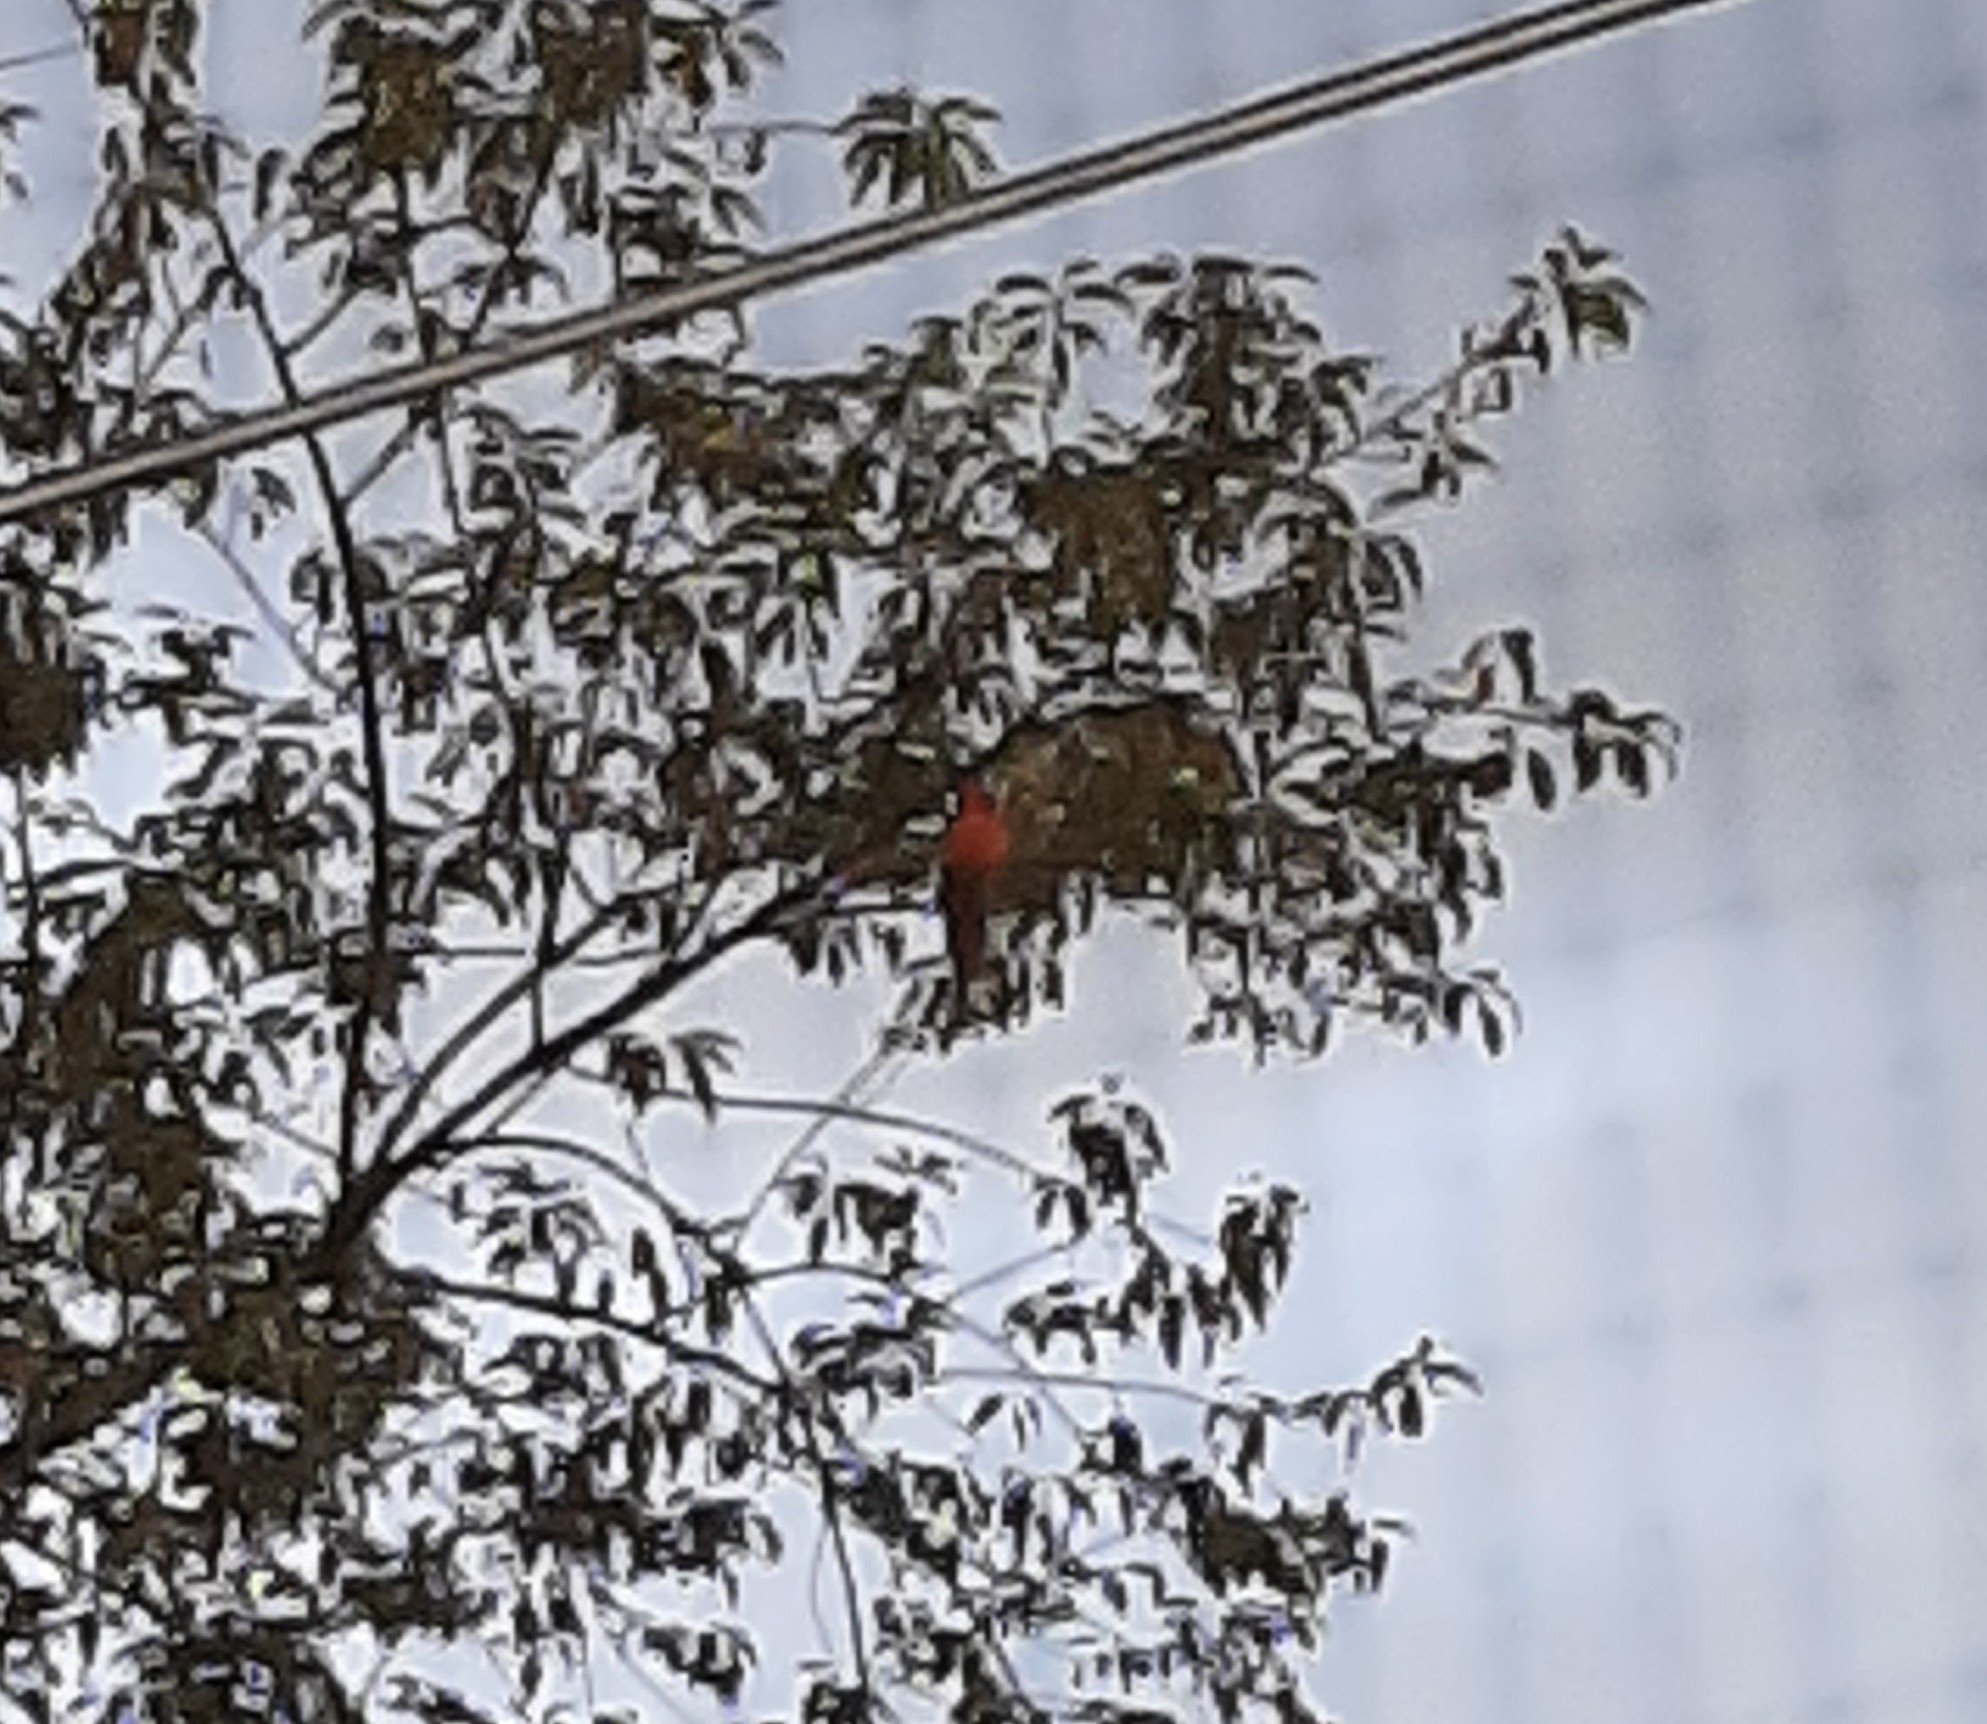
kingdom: Animalia
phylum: Chordata
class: Aves
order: Passeriformes
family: Cardinalidae
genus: Cardinalis
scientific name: Cardinalis cardinalis
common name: Northern cardinal
